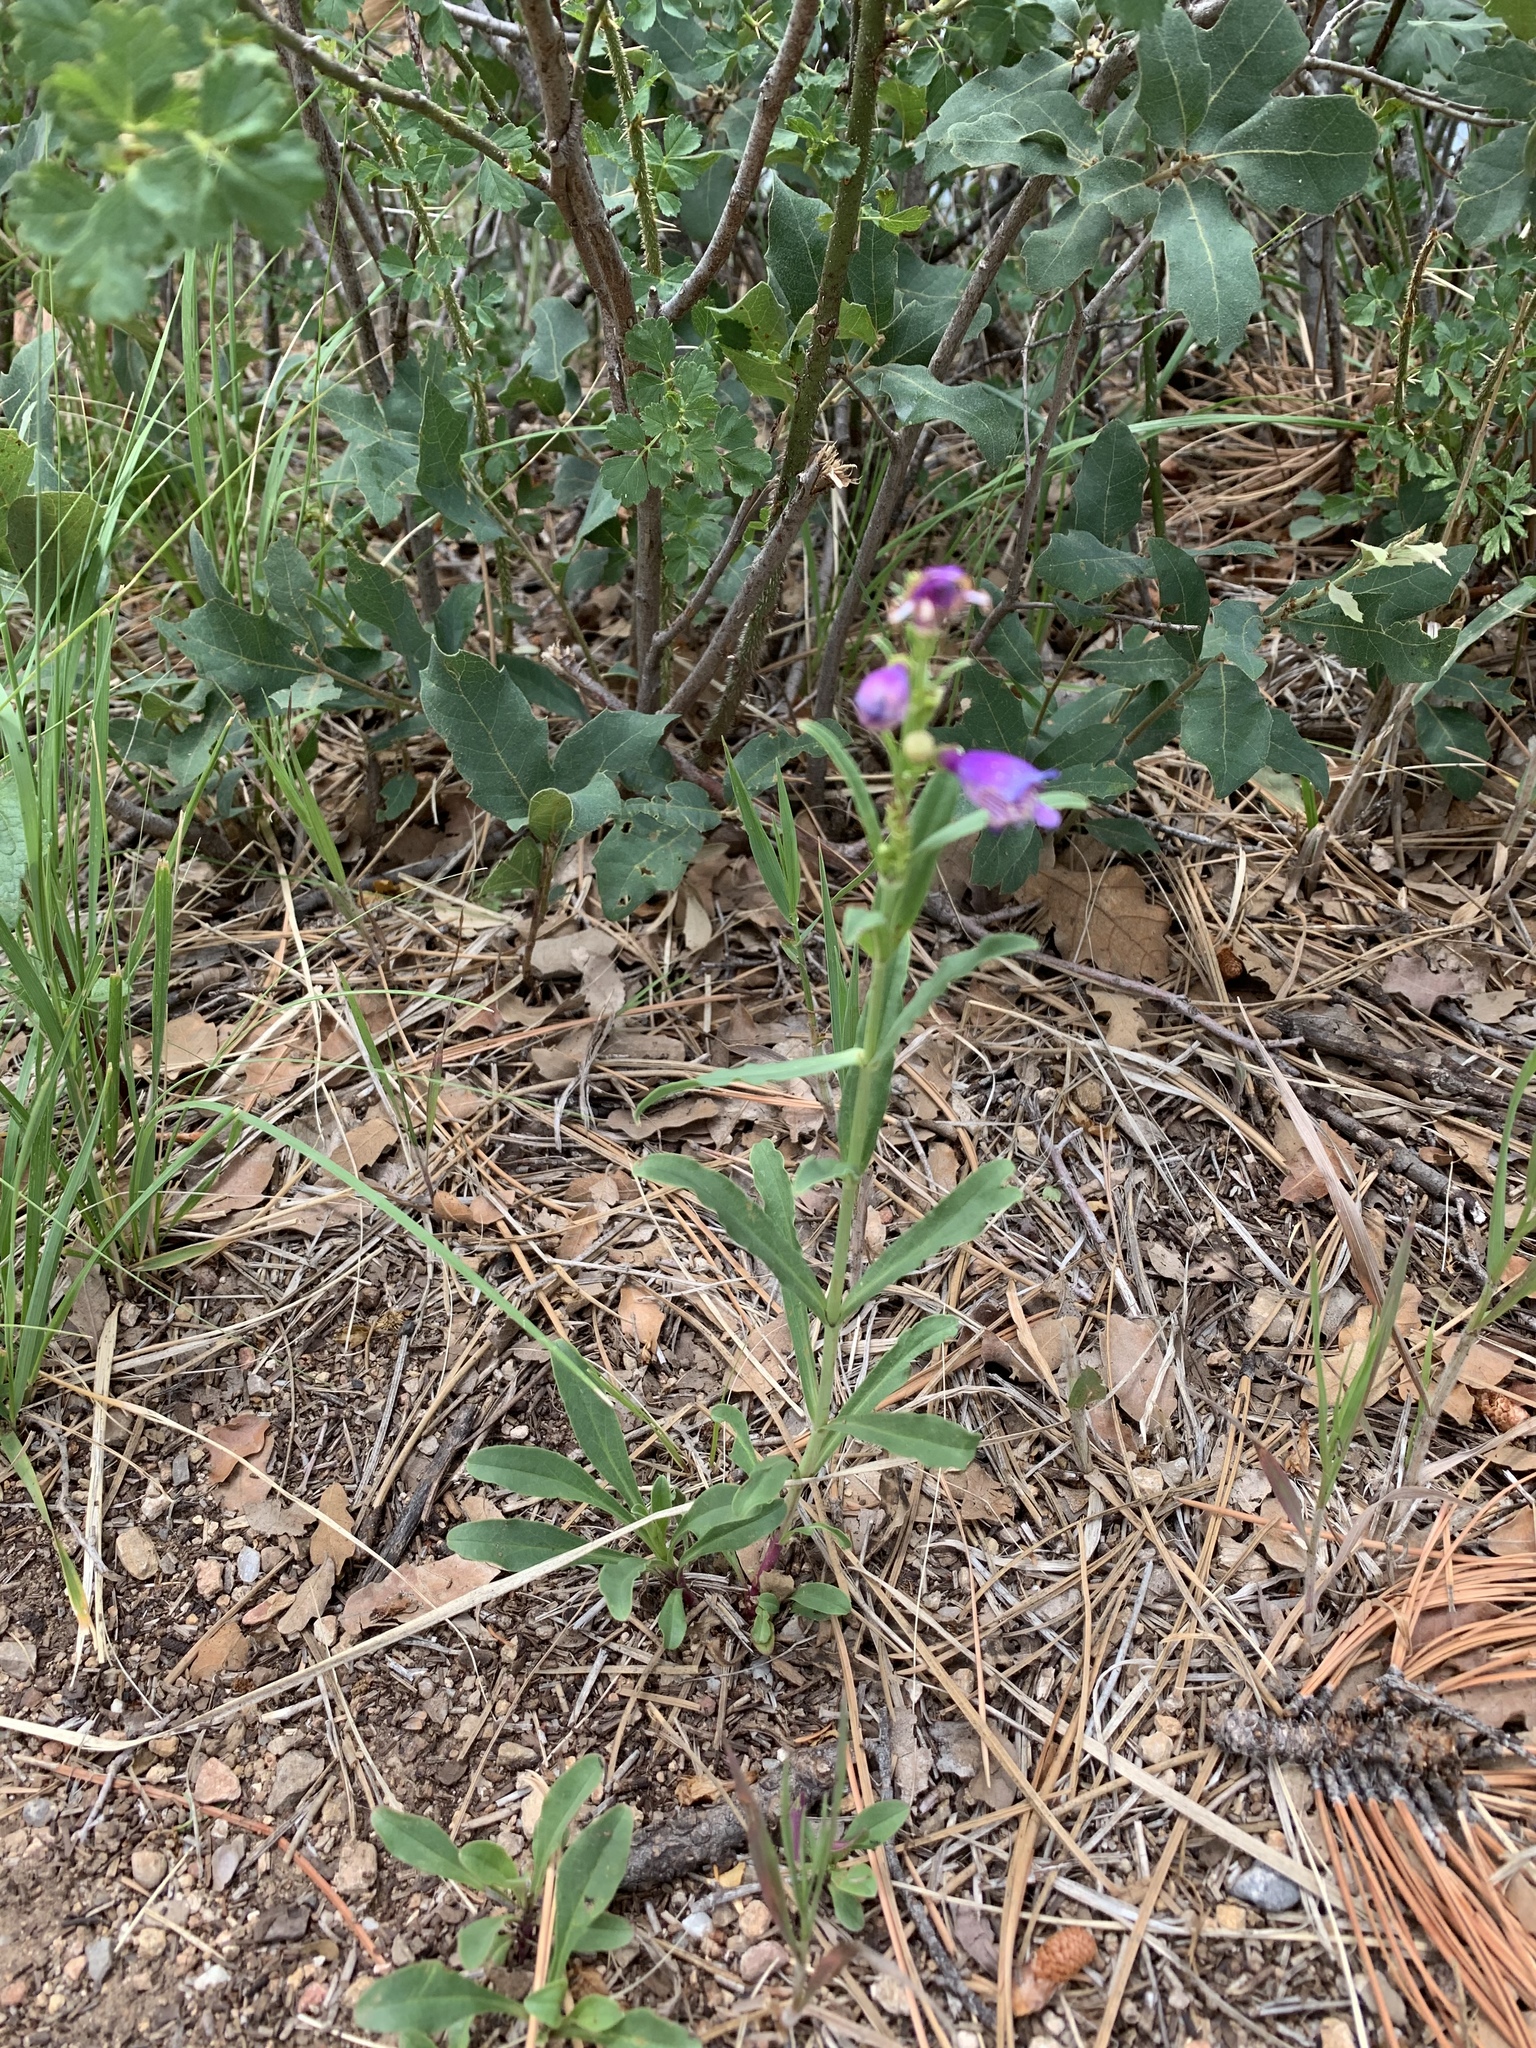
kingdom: Plantae
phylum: Tracheophyta
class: Magnoliopsida
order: Lamiales
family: Plantaginaceae
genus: Penstemon
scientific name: Penstemon neomexicanus
